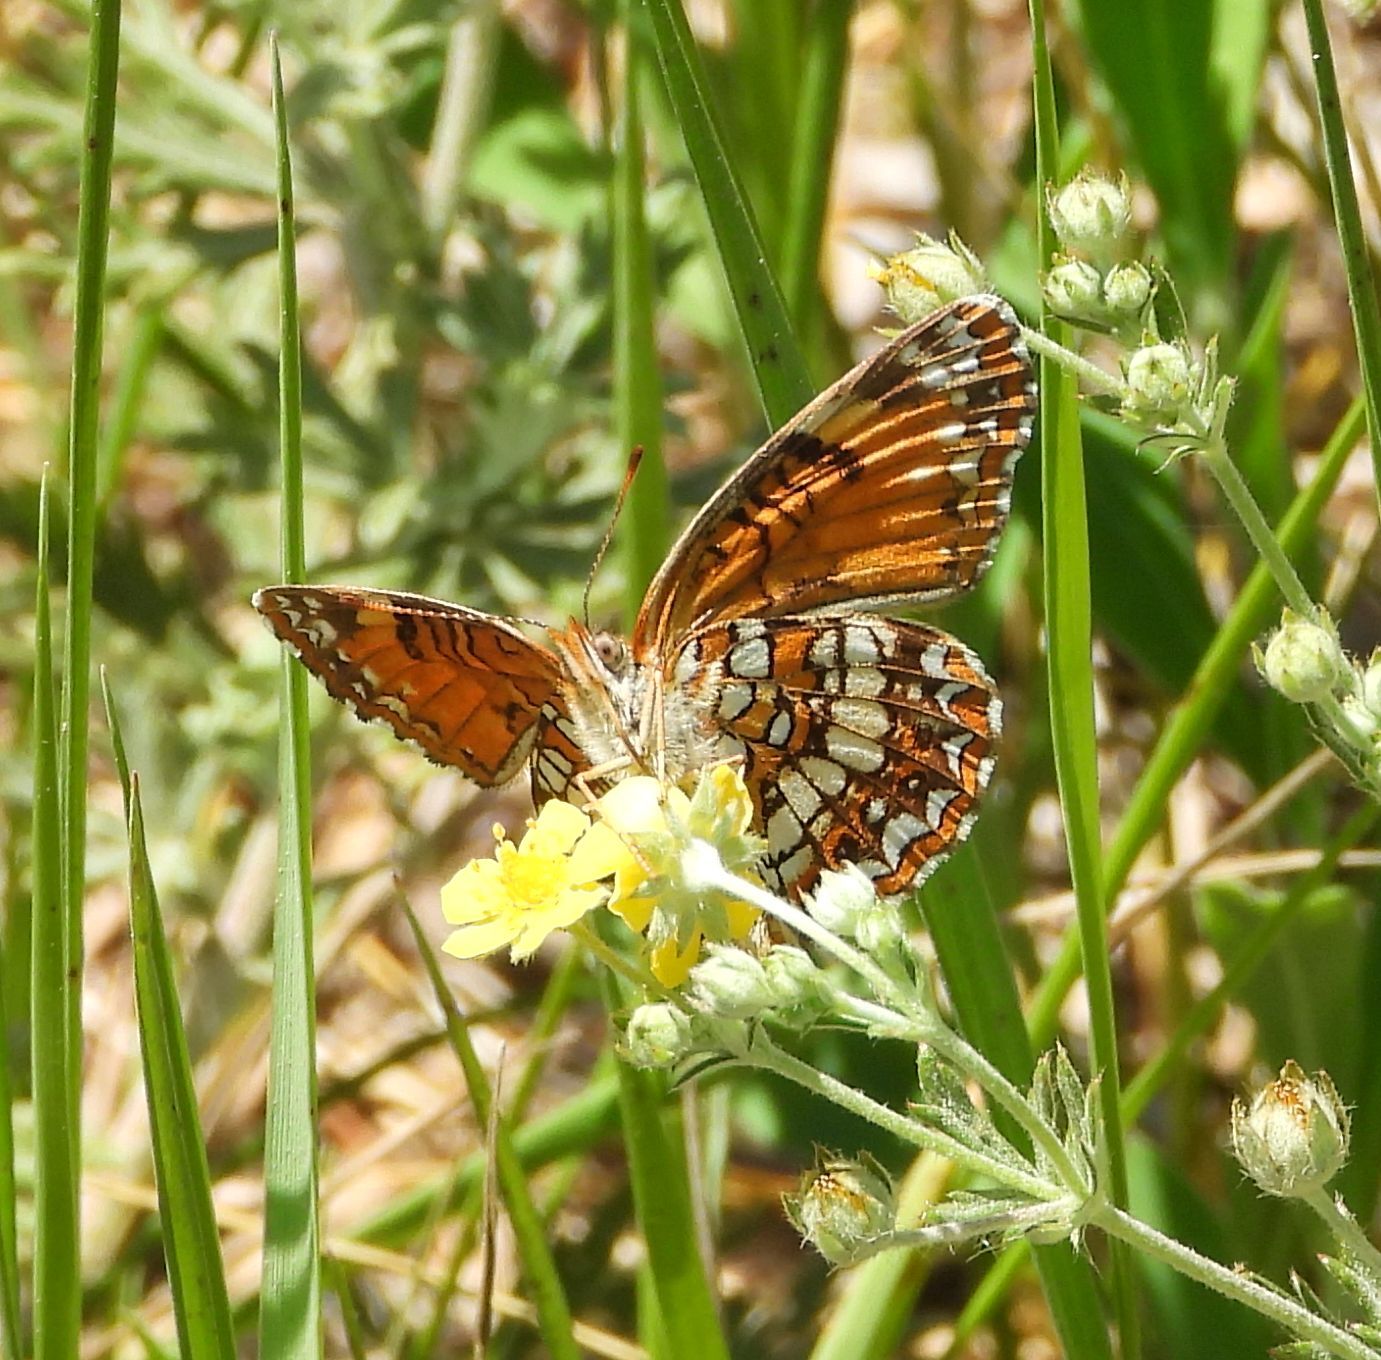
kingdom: Animalia
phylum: Arthropoda
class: Insecta
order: Lepidoptera
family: Nymphalidae
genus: Chlosyne
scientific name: Chlosyne harrisii
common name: Harris's checkerspot
